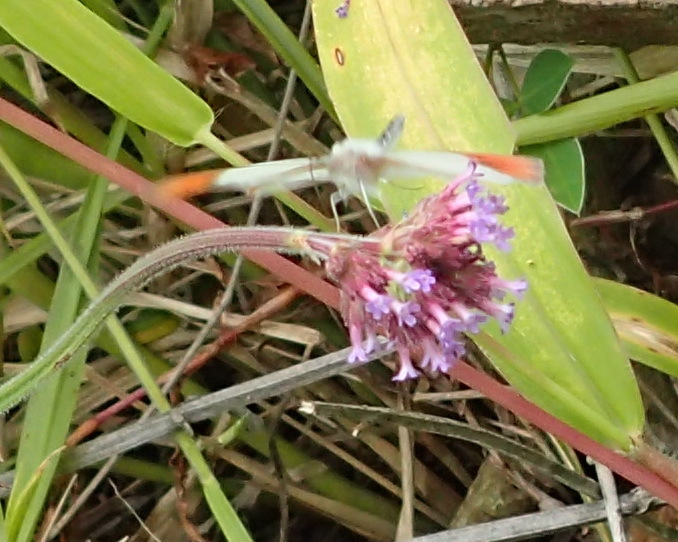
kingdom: Animalia
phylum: Arthropoda
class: Insecta
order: Lepidoptera
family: Pieridae
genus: Colotis
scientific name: Colotis
